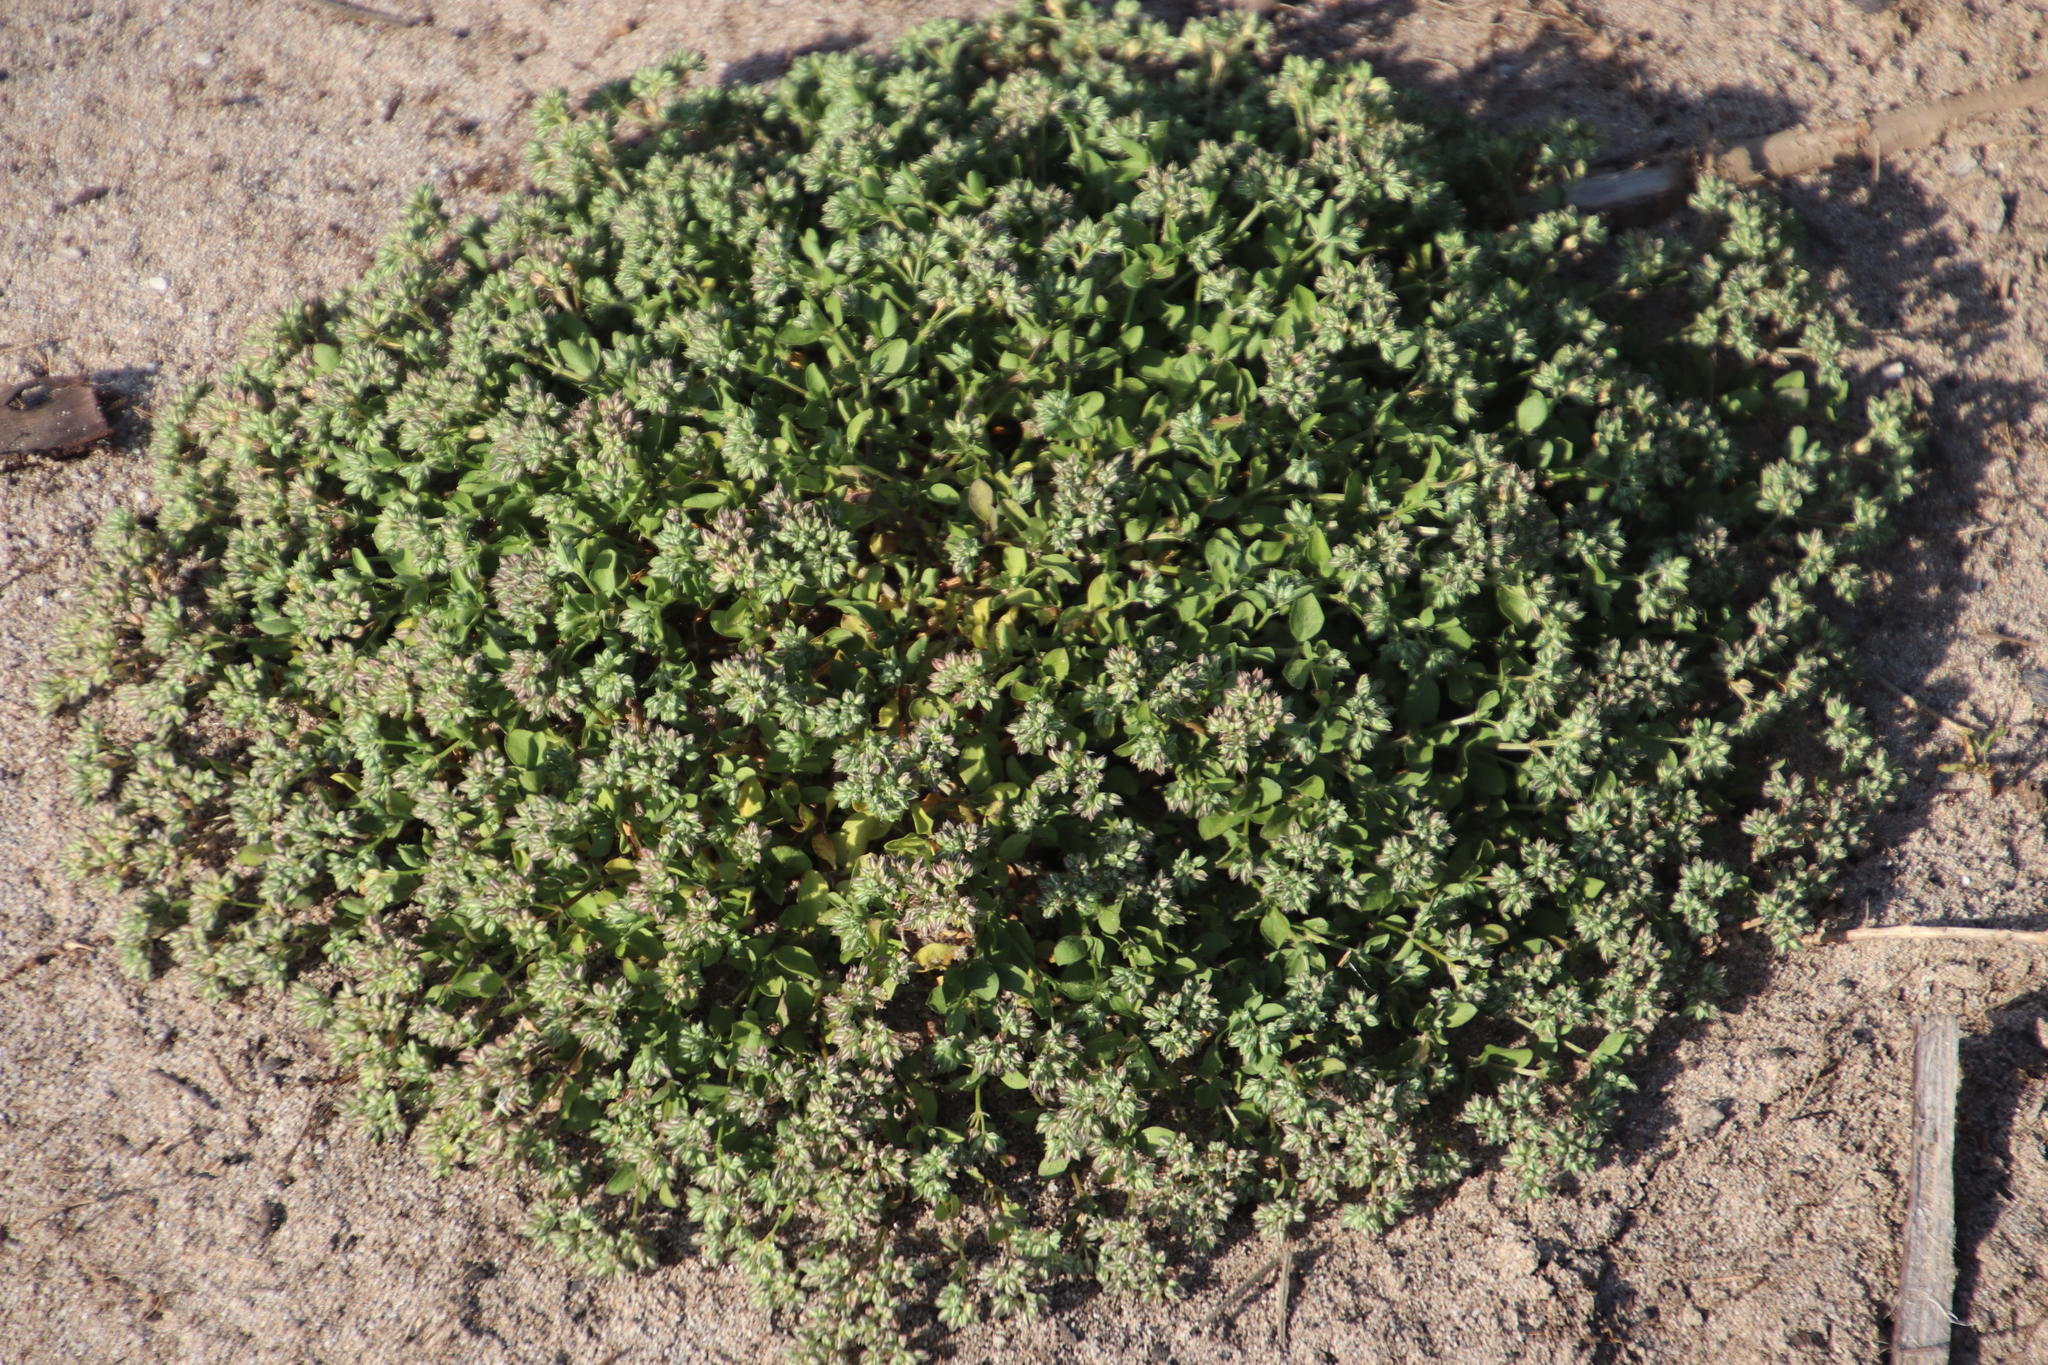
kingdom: Plantae
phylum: Tracheophyta
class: Magnoliopsida
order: Caryophyllales
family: Caryophyllaceae
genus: Polycarpon
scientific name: Polycarpon tetraphyllum
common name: Four-leaved all-seed
